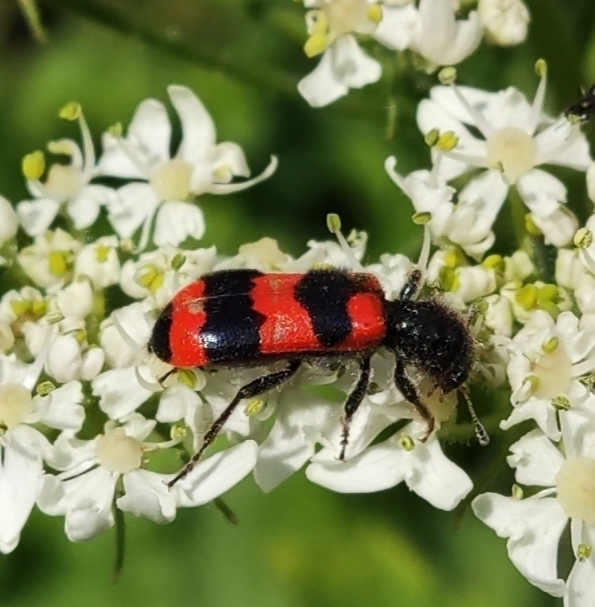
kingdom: Animalia
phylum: Arthropoda
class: Insecta
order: Coleoptera
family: Cleridae
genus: Trichodes
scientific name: Trichodes apiarius
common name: Bee-eating beetle
